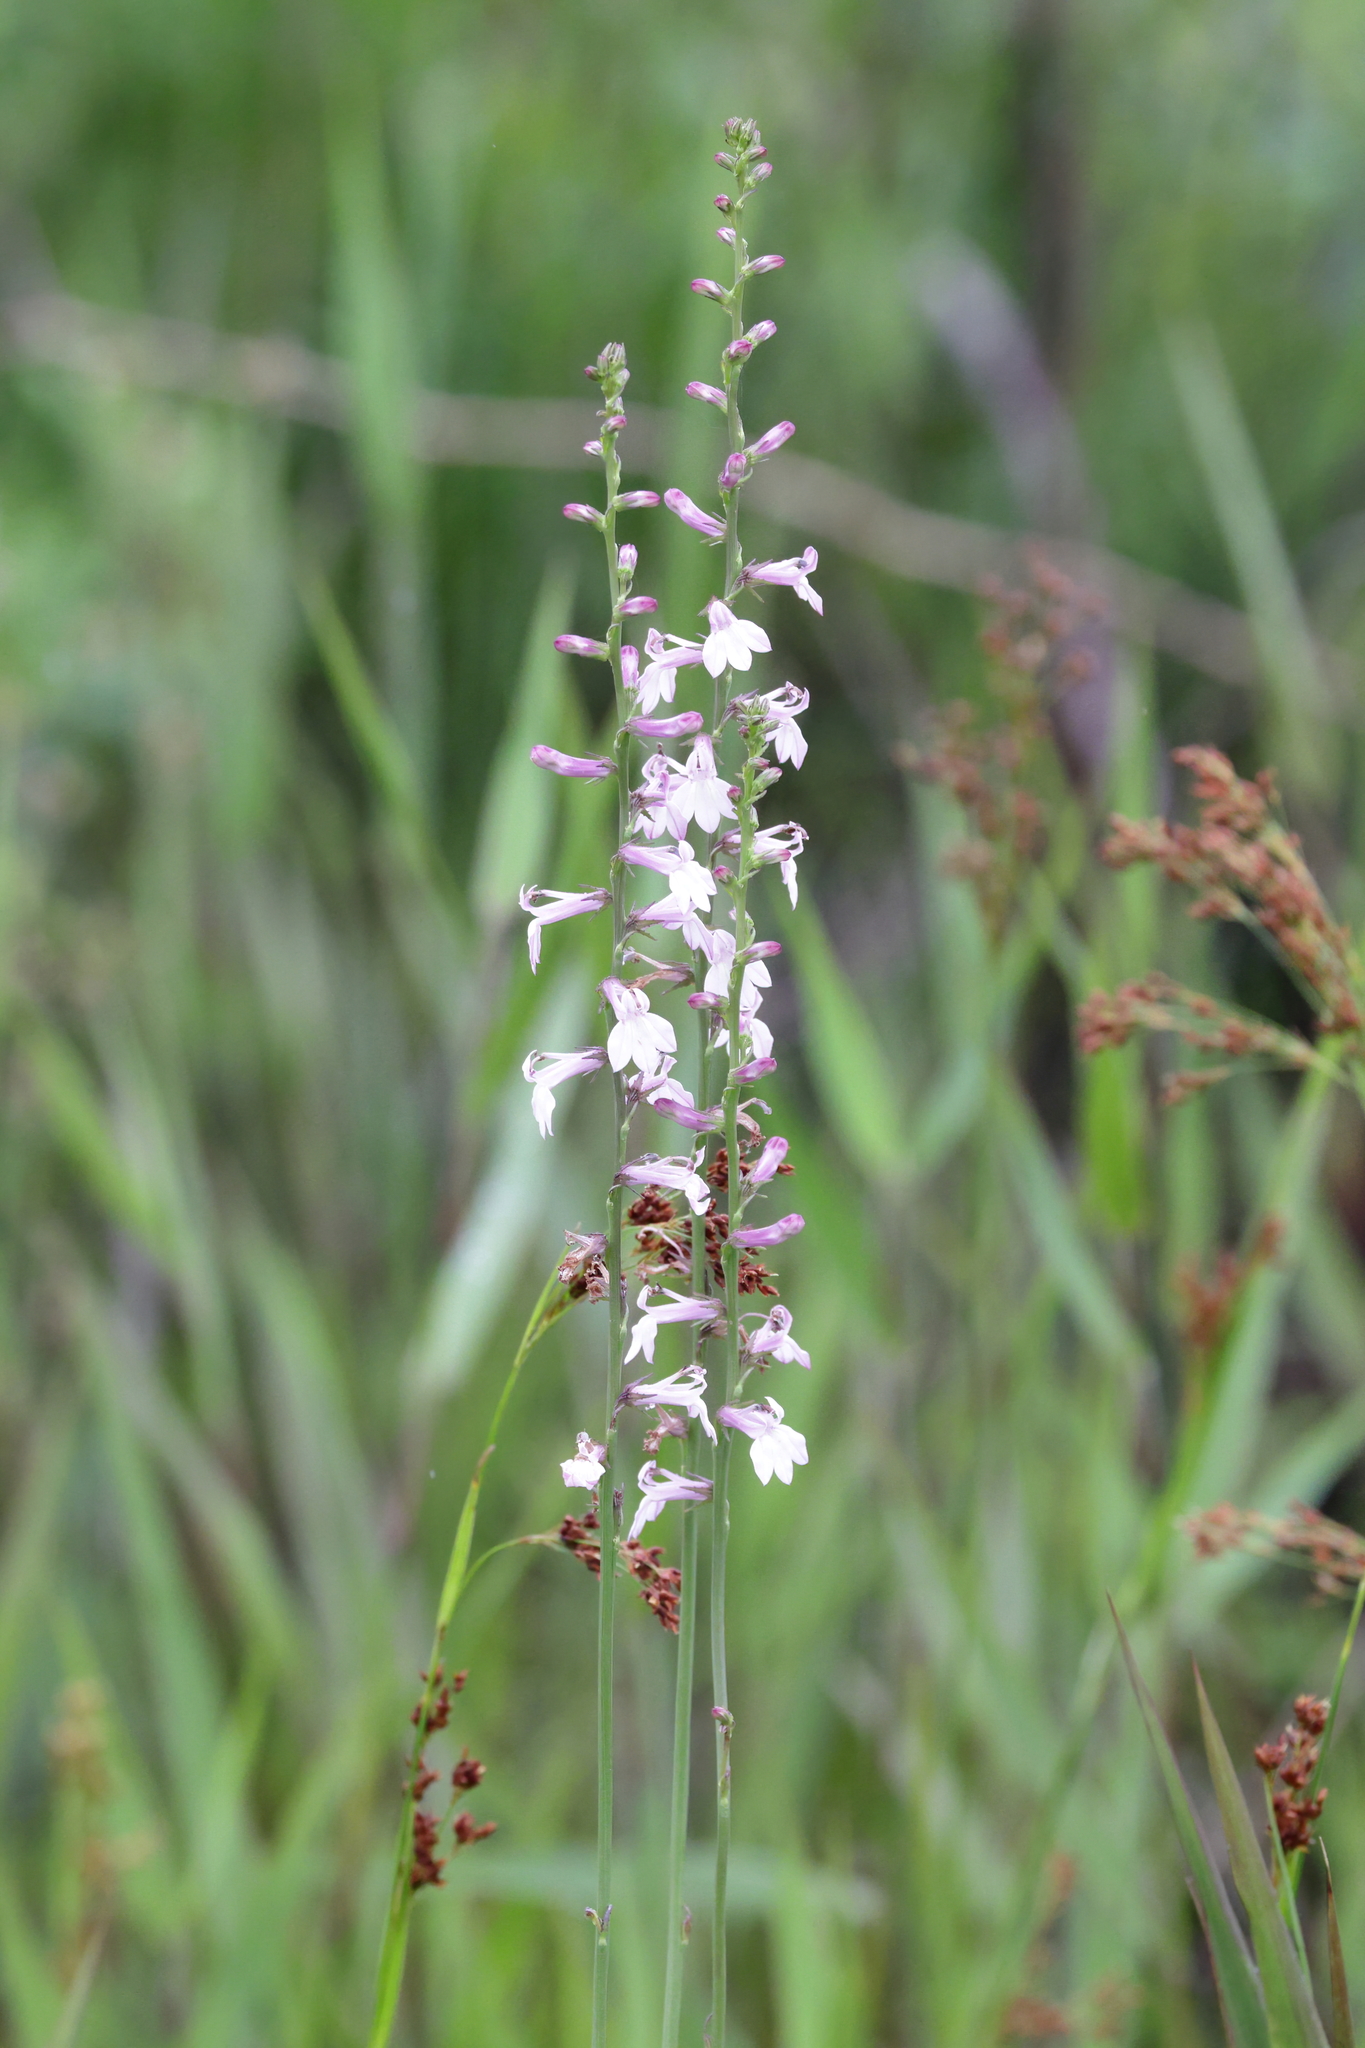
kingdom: Plantae
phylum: Tracheophyta
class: Magnoliopsida
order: Asterales
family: Campanulaceae
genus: Lobelia
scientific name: Lobelia floridana
